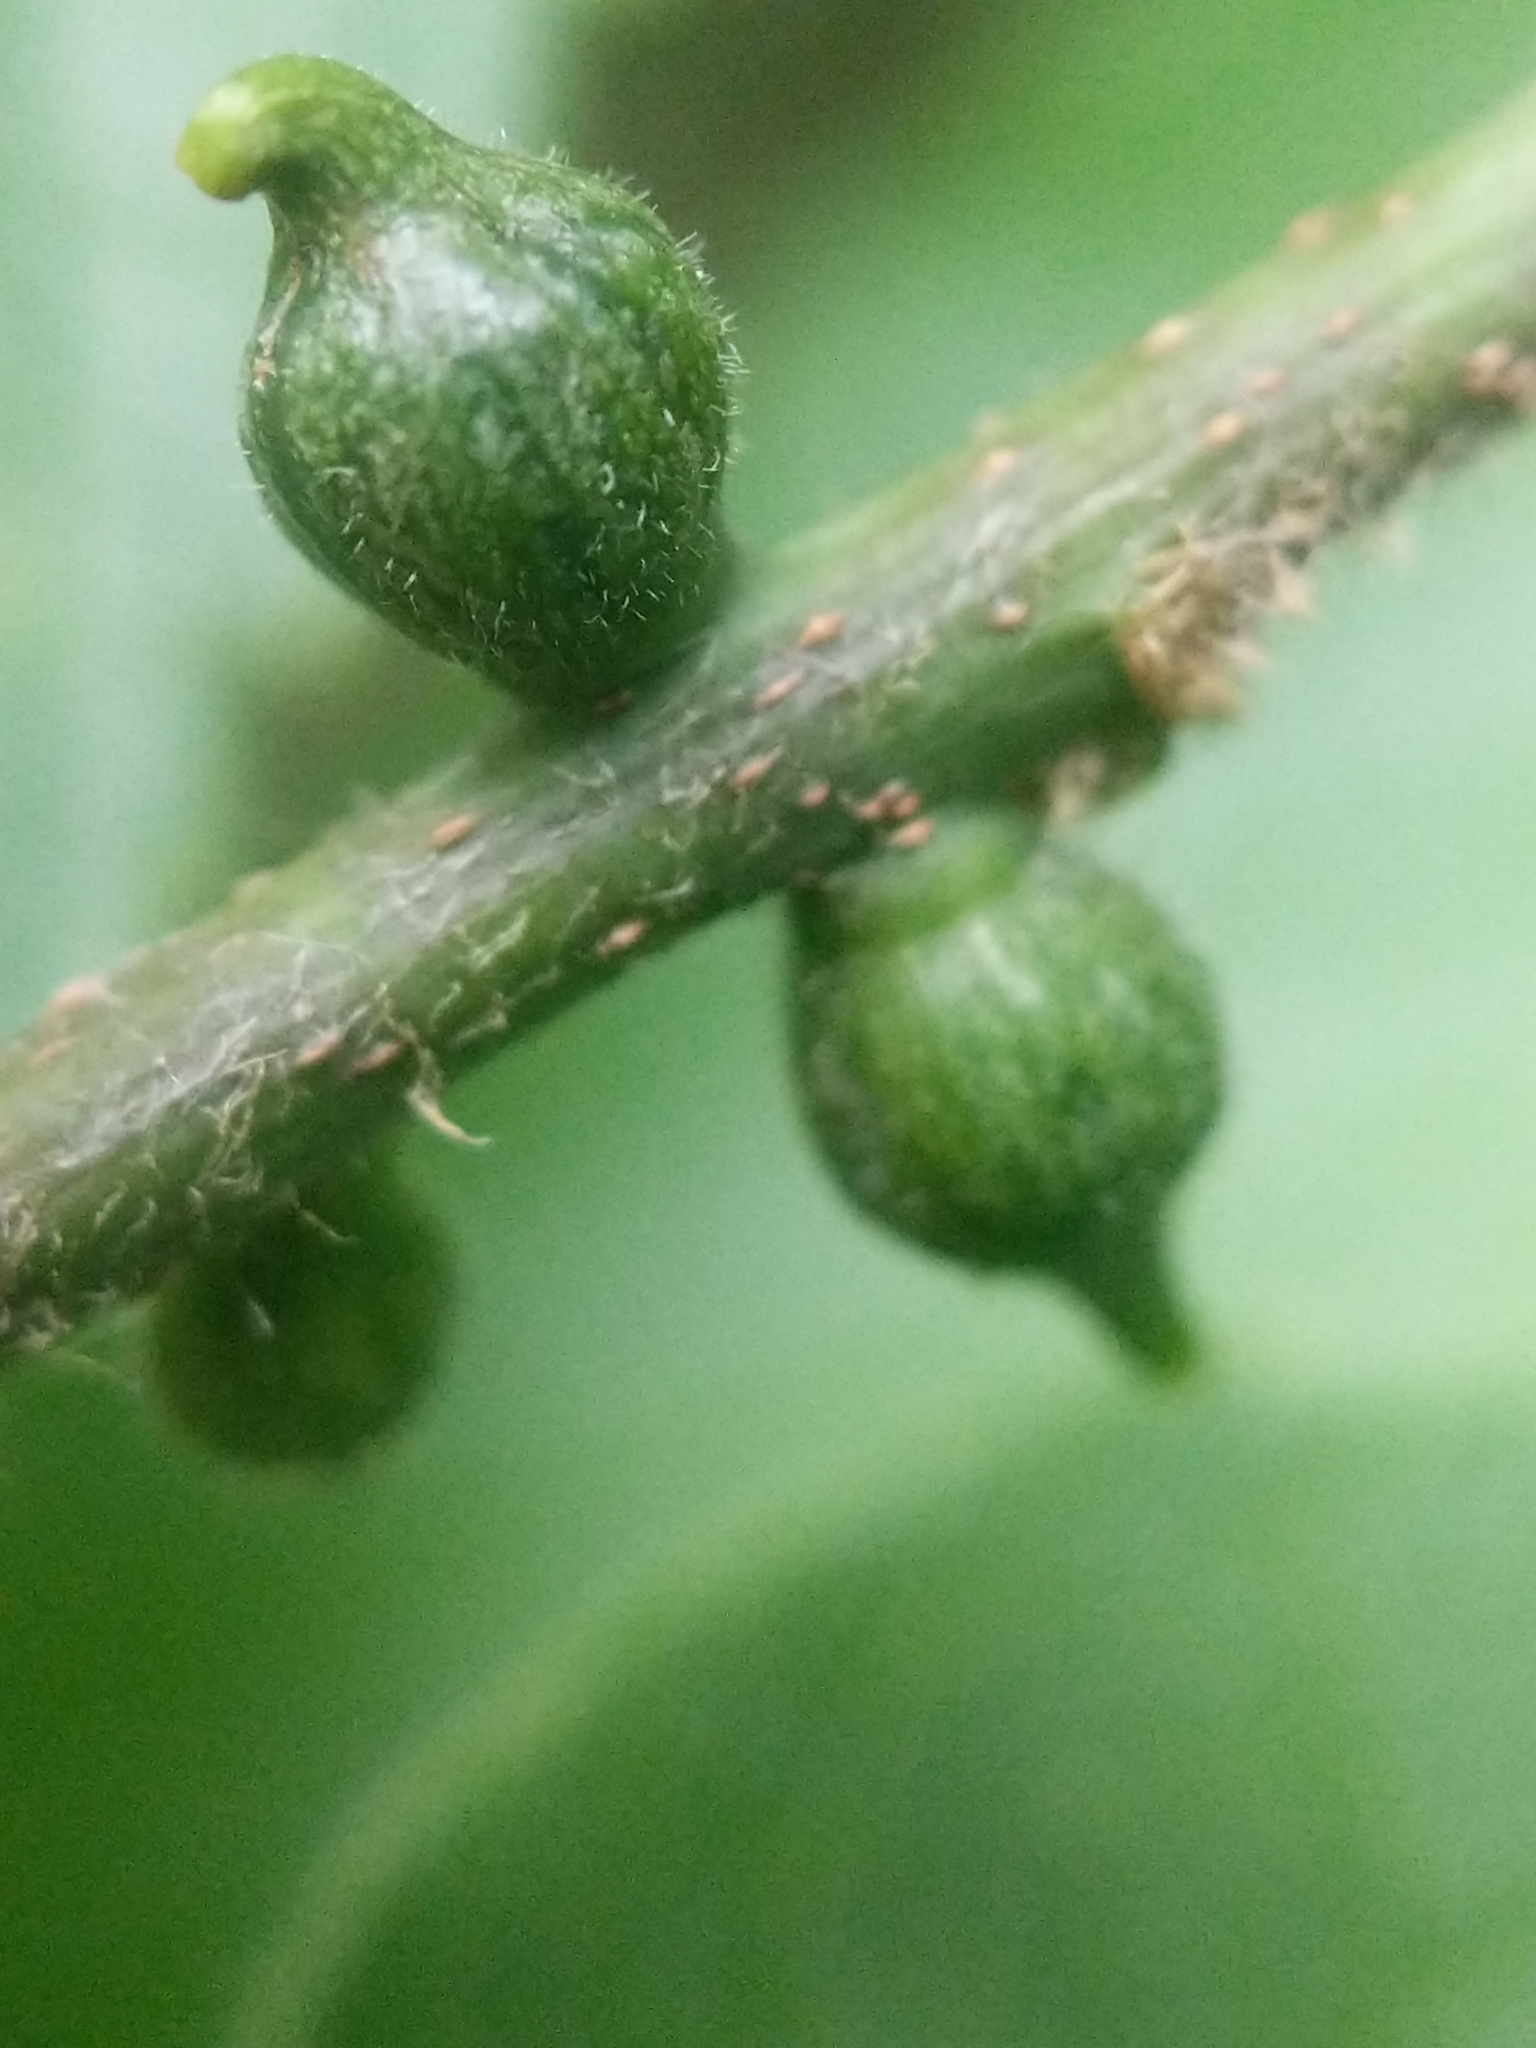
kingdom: Animalia
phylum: Arthropoda
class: Insecta
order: Diptera
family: Cecidomyiidae
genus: Celticecis
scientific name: Celticecis ovata
